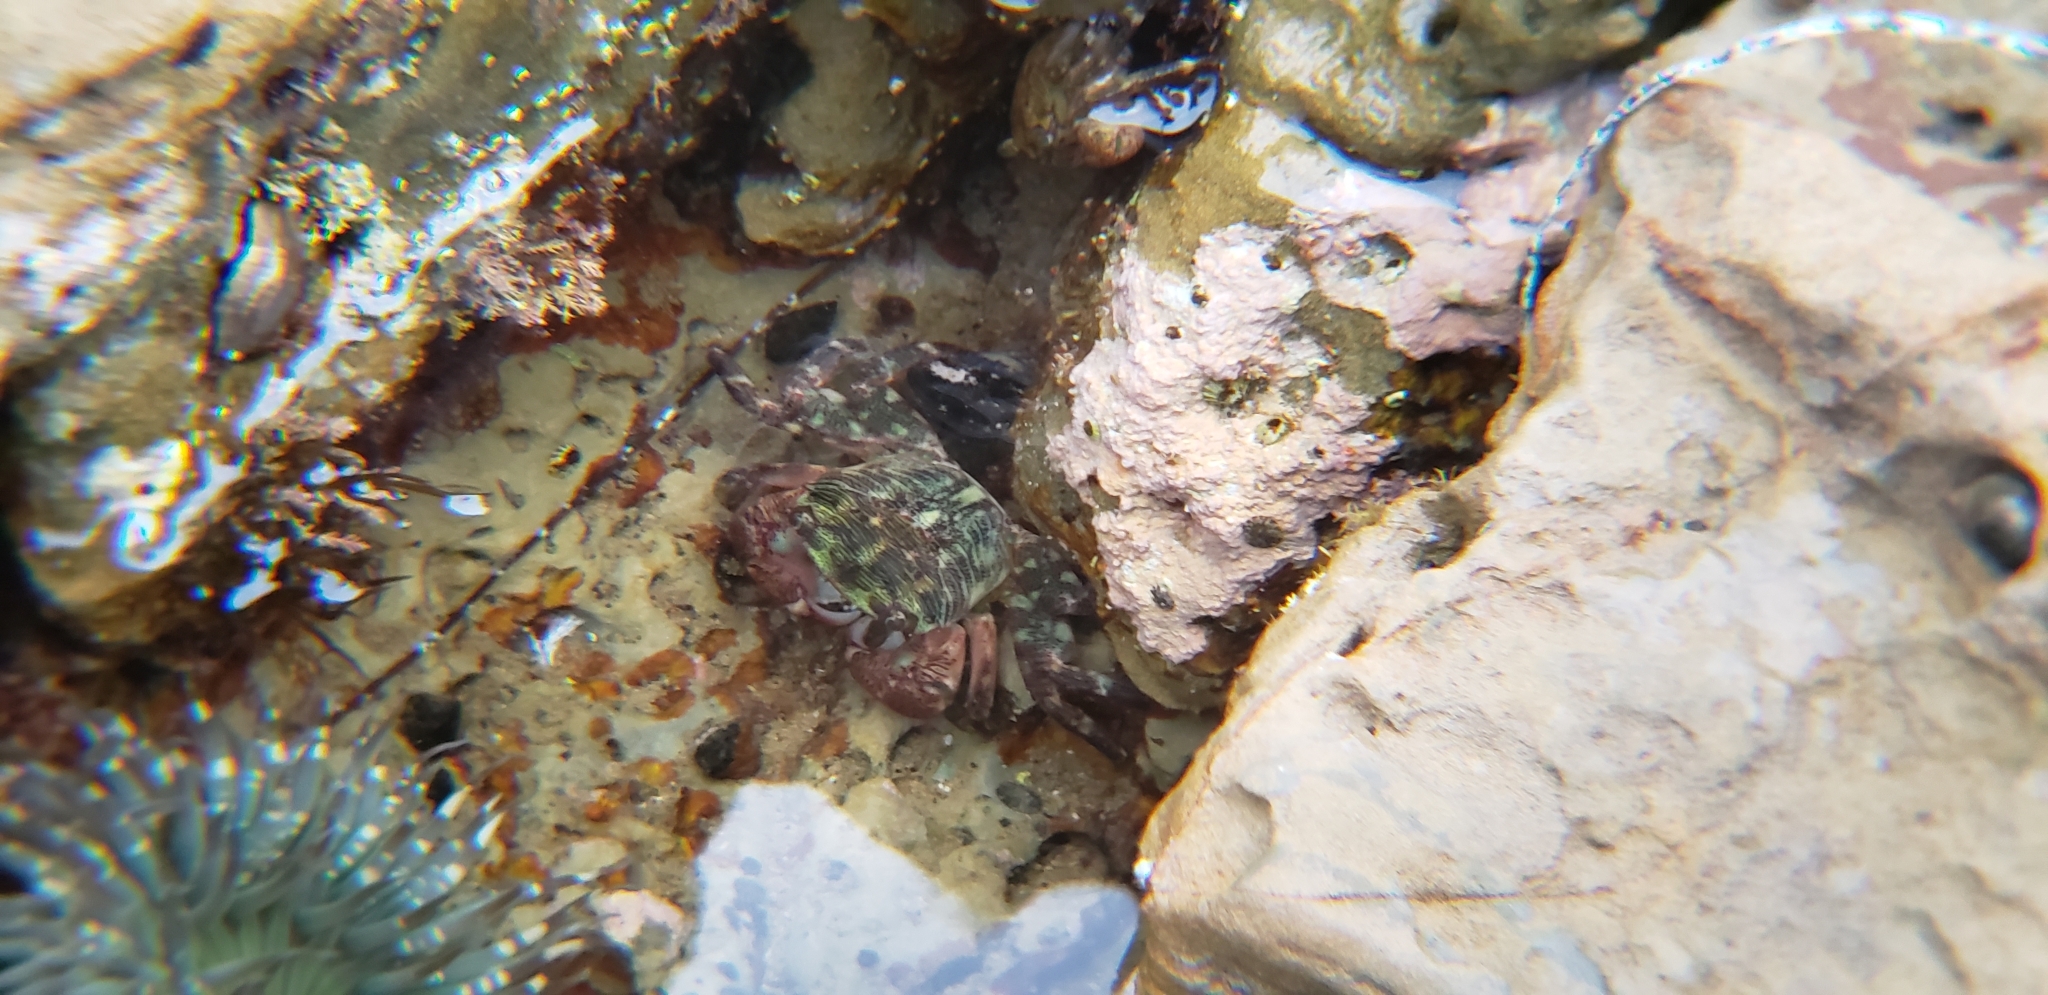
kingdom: Animalia
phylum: Arthropoda
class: Malacostraca
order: Decapoda
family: Grapsidae
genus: Pachygrapsus
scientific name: Pachygrapsus crassipes
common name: Striped shore crab
